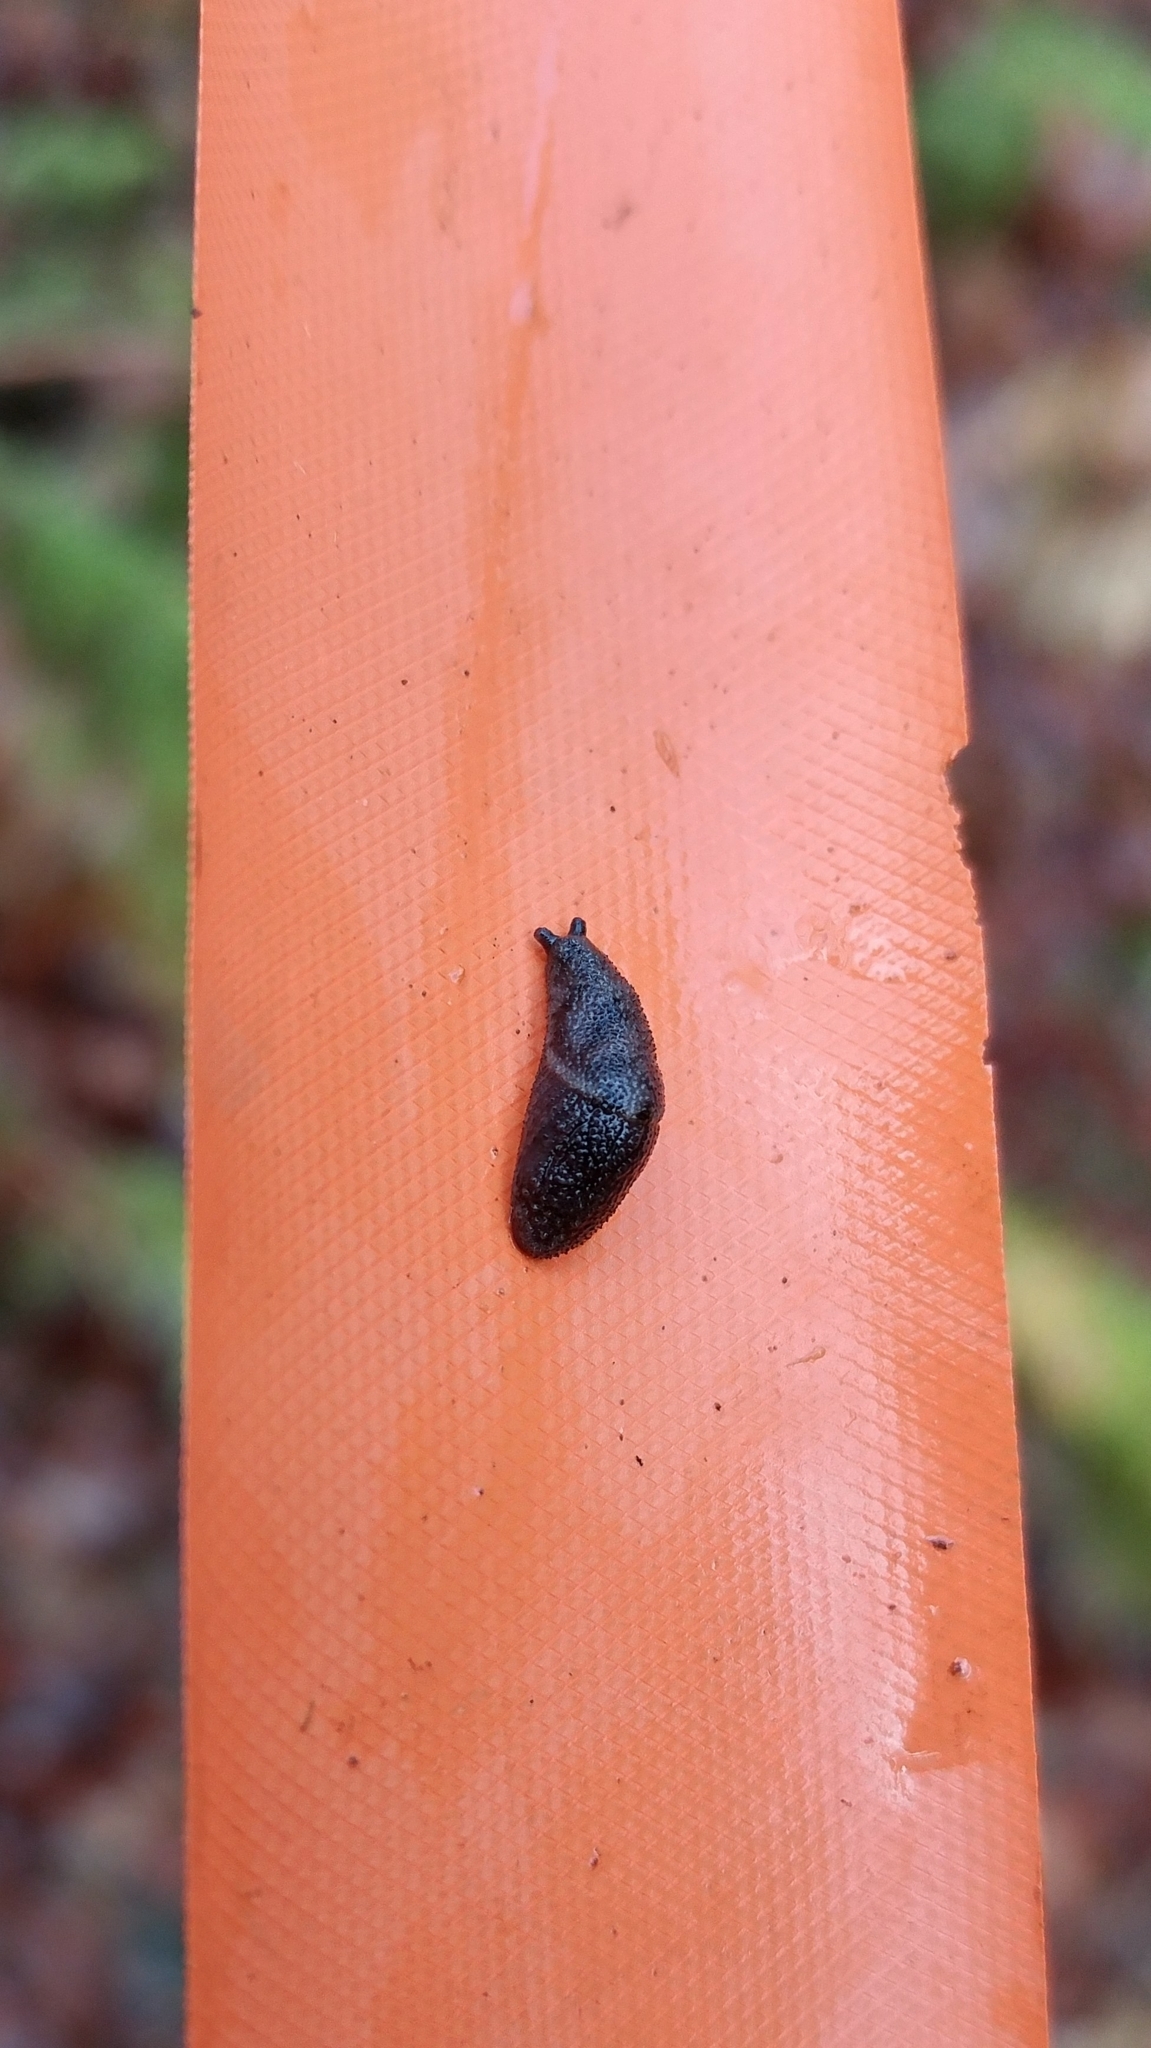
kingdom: Animalia
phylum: Mollusca
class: Gastropoda
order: Stylommatophora
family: Ariolimacidae
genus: Prophysaon
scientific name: Prophysaon dubium
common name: Papillose taildropper
